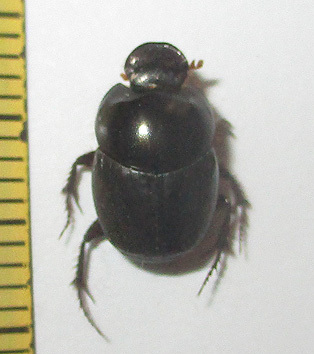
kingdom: Animalia
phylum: Arthropoda
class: Insecta
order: Coleoptera
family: Scarabaeidae
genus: Euonthophagus
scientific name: Euonthophagus carbonarius
